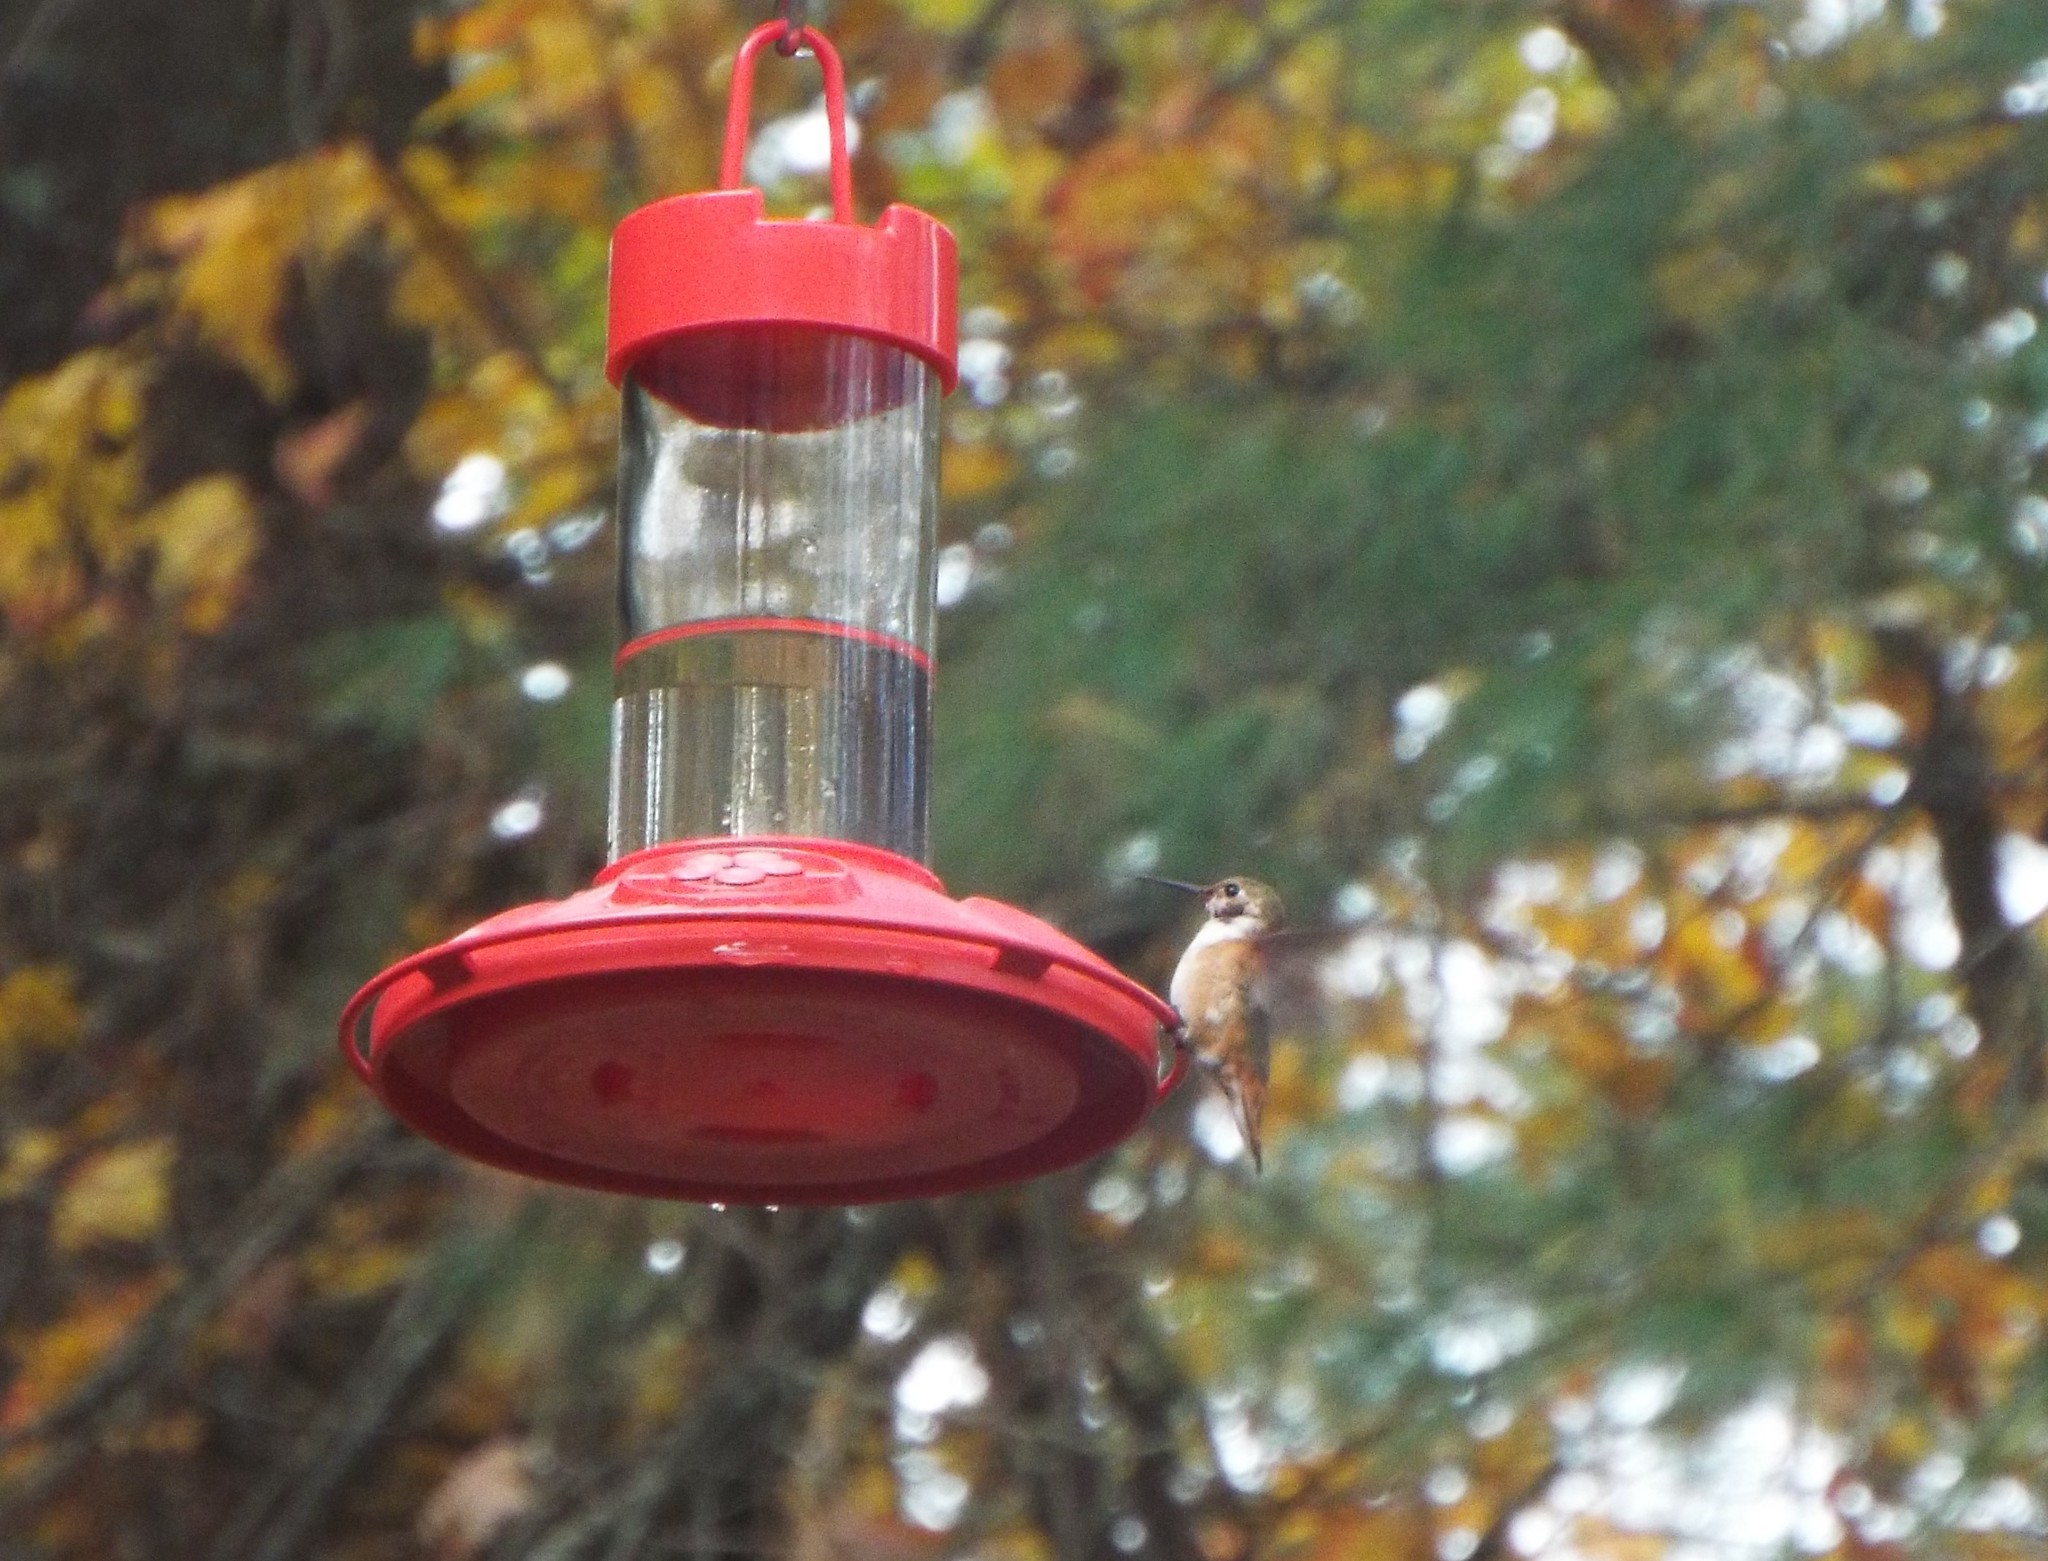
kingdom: Animalia
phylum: Chordata
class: Aves
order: Apodiformes
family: Trochilidae
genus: Selasphorus
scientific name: Selasphorus rufus
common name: Rufous hummingbird
